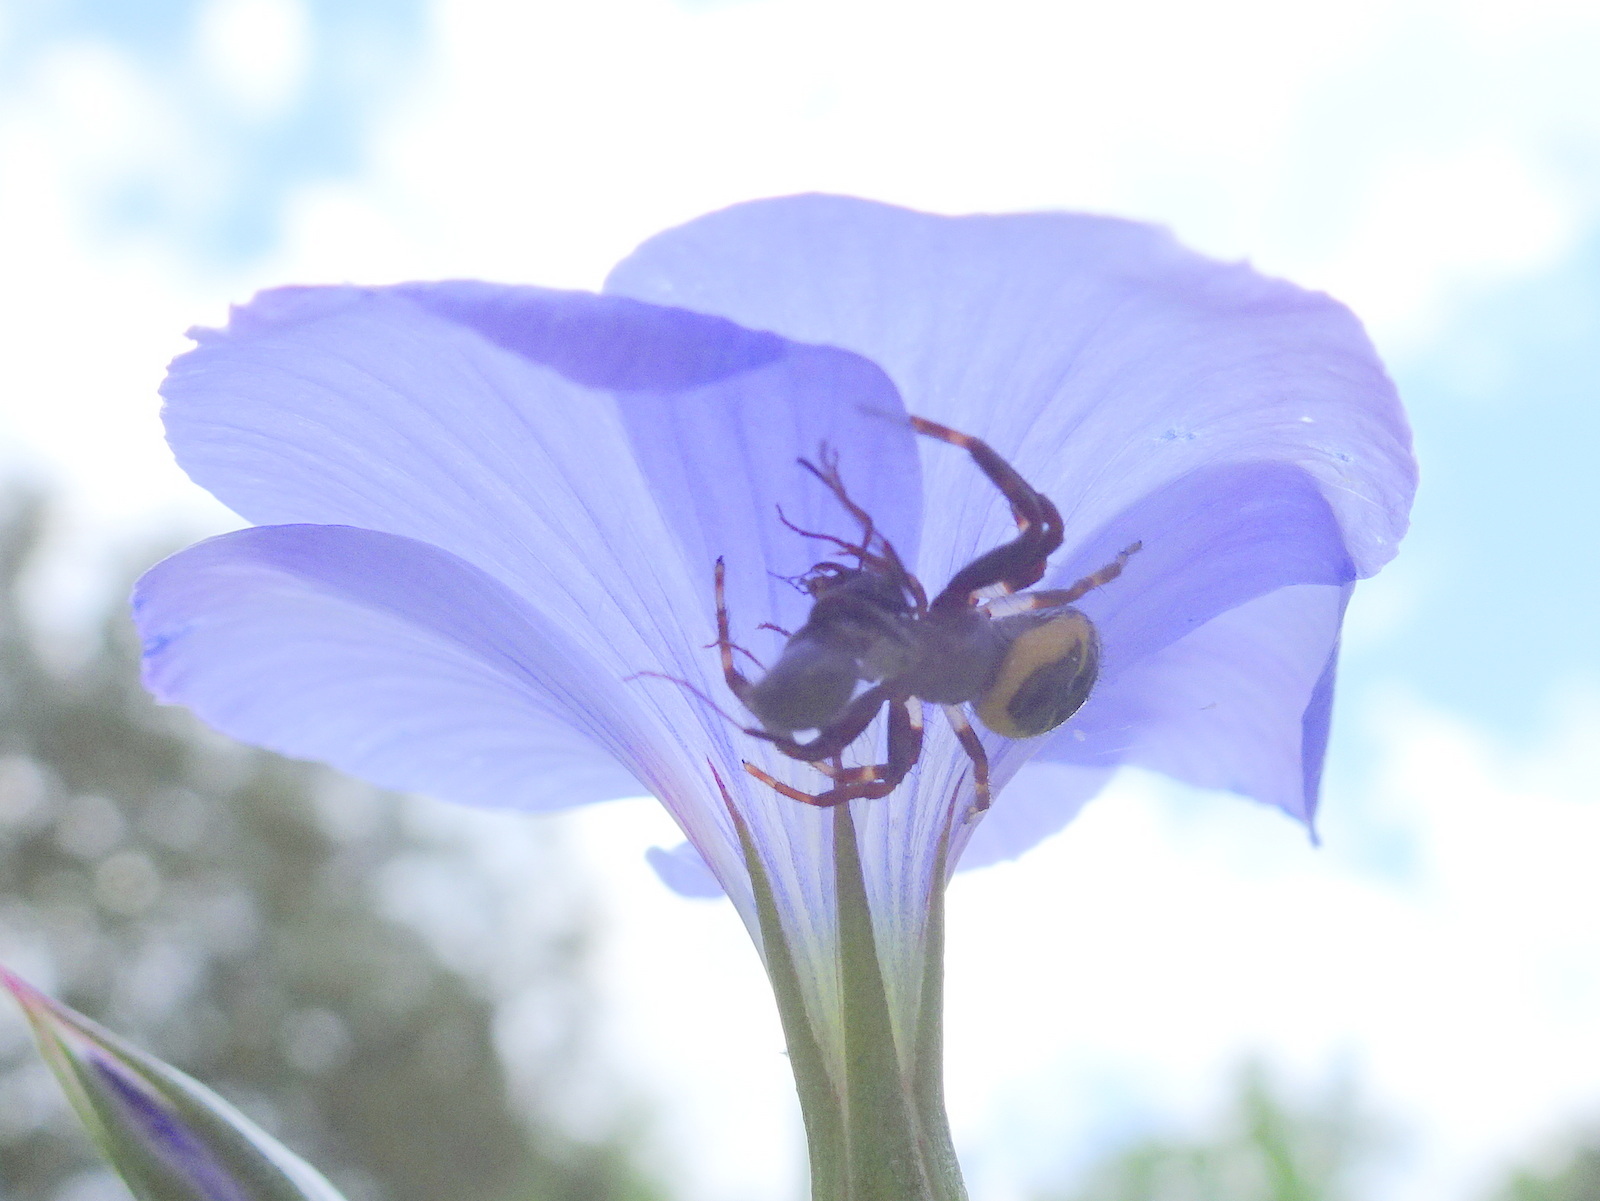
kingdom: Animalia
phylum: Arthropoda
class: Arachnida
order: Araneae
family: Thomisidae
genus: Synema
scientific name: Synema globosum
